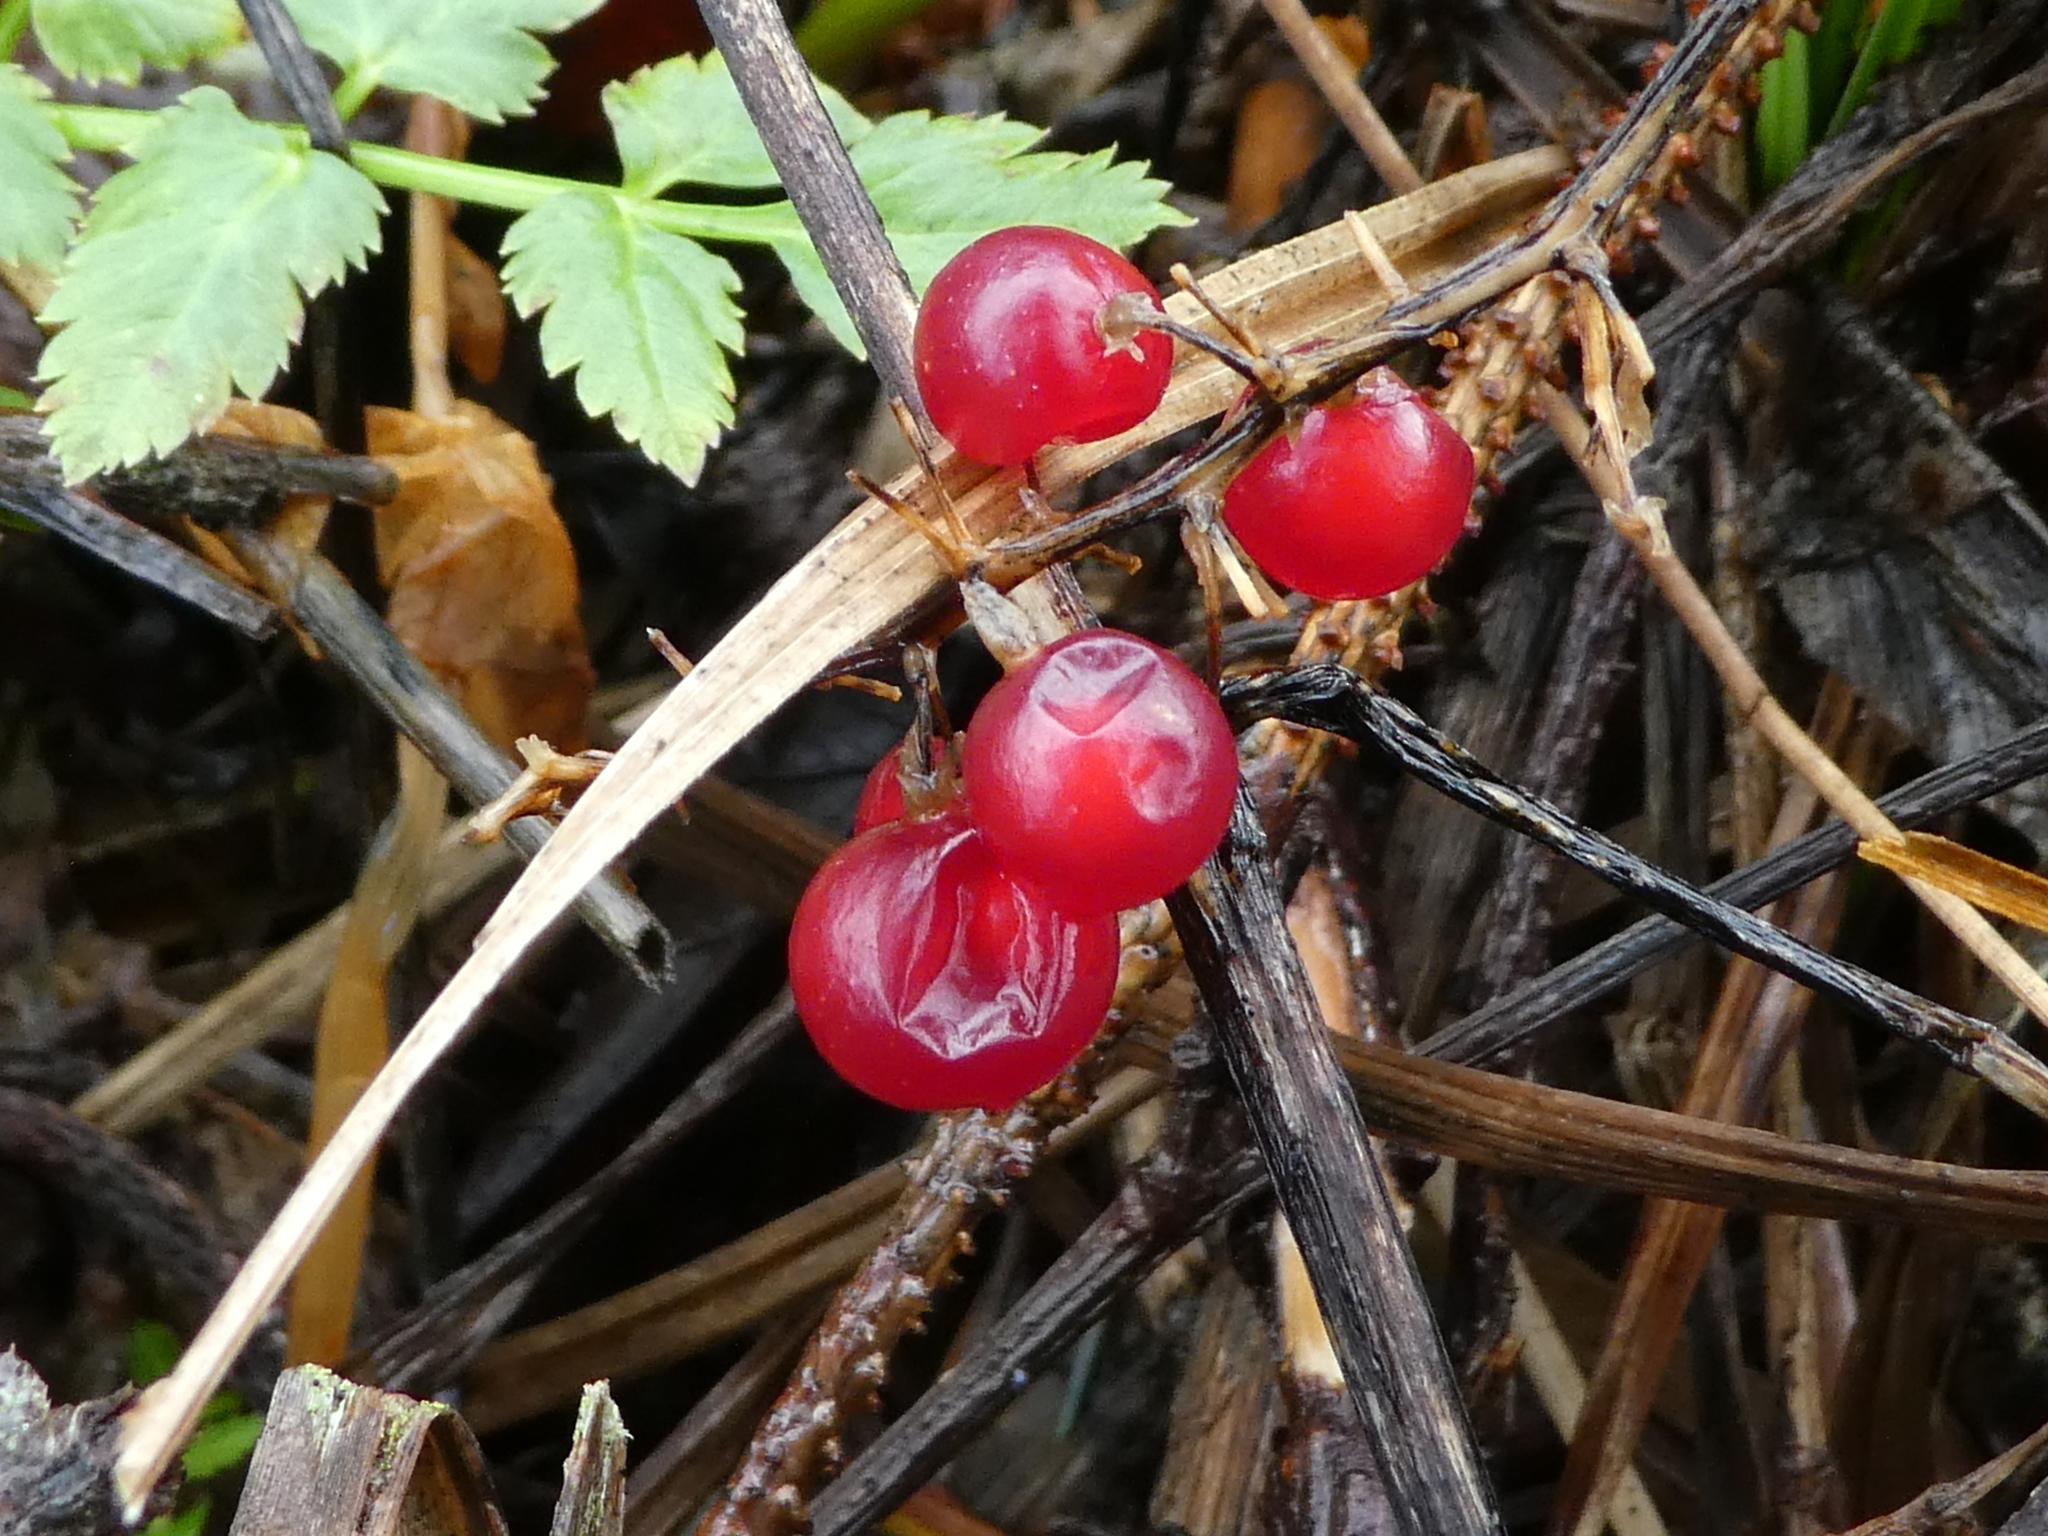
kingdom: Plantae
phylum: Tracheophyta
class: Liliopsida
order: Asparagales
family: Asparagaceae
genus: Maianthemum
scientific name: Maianthemum dilatatum
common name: False lily-of-the-valley
